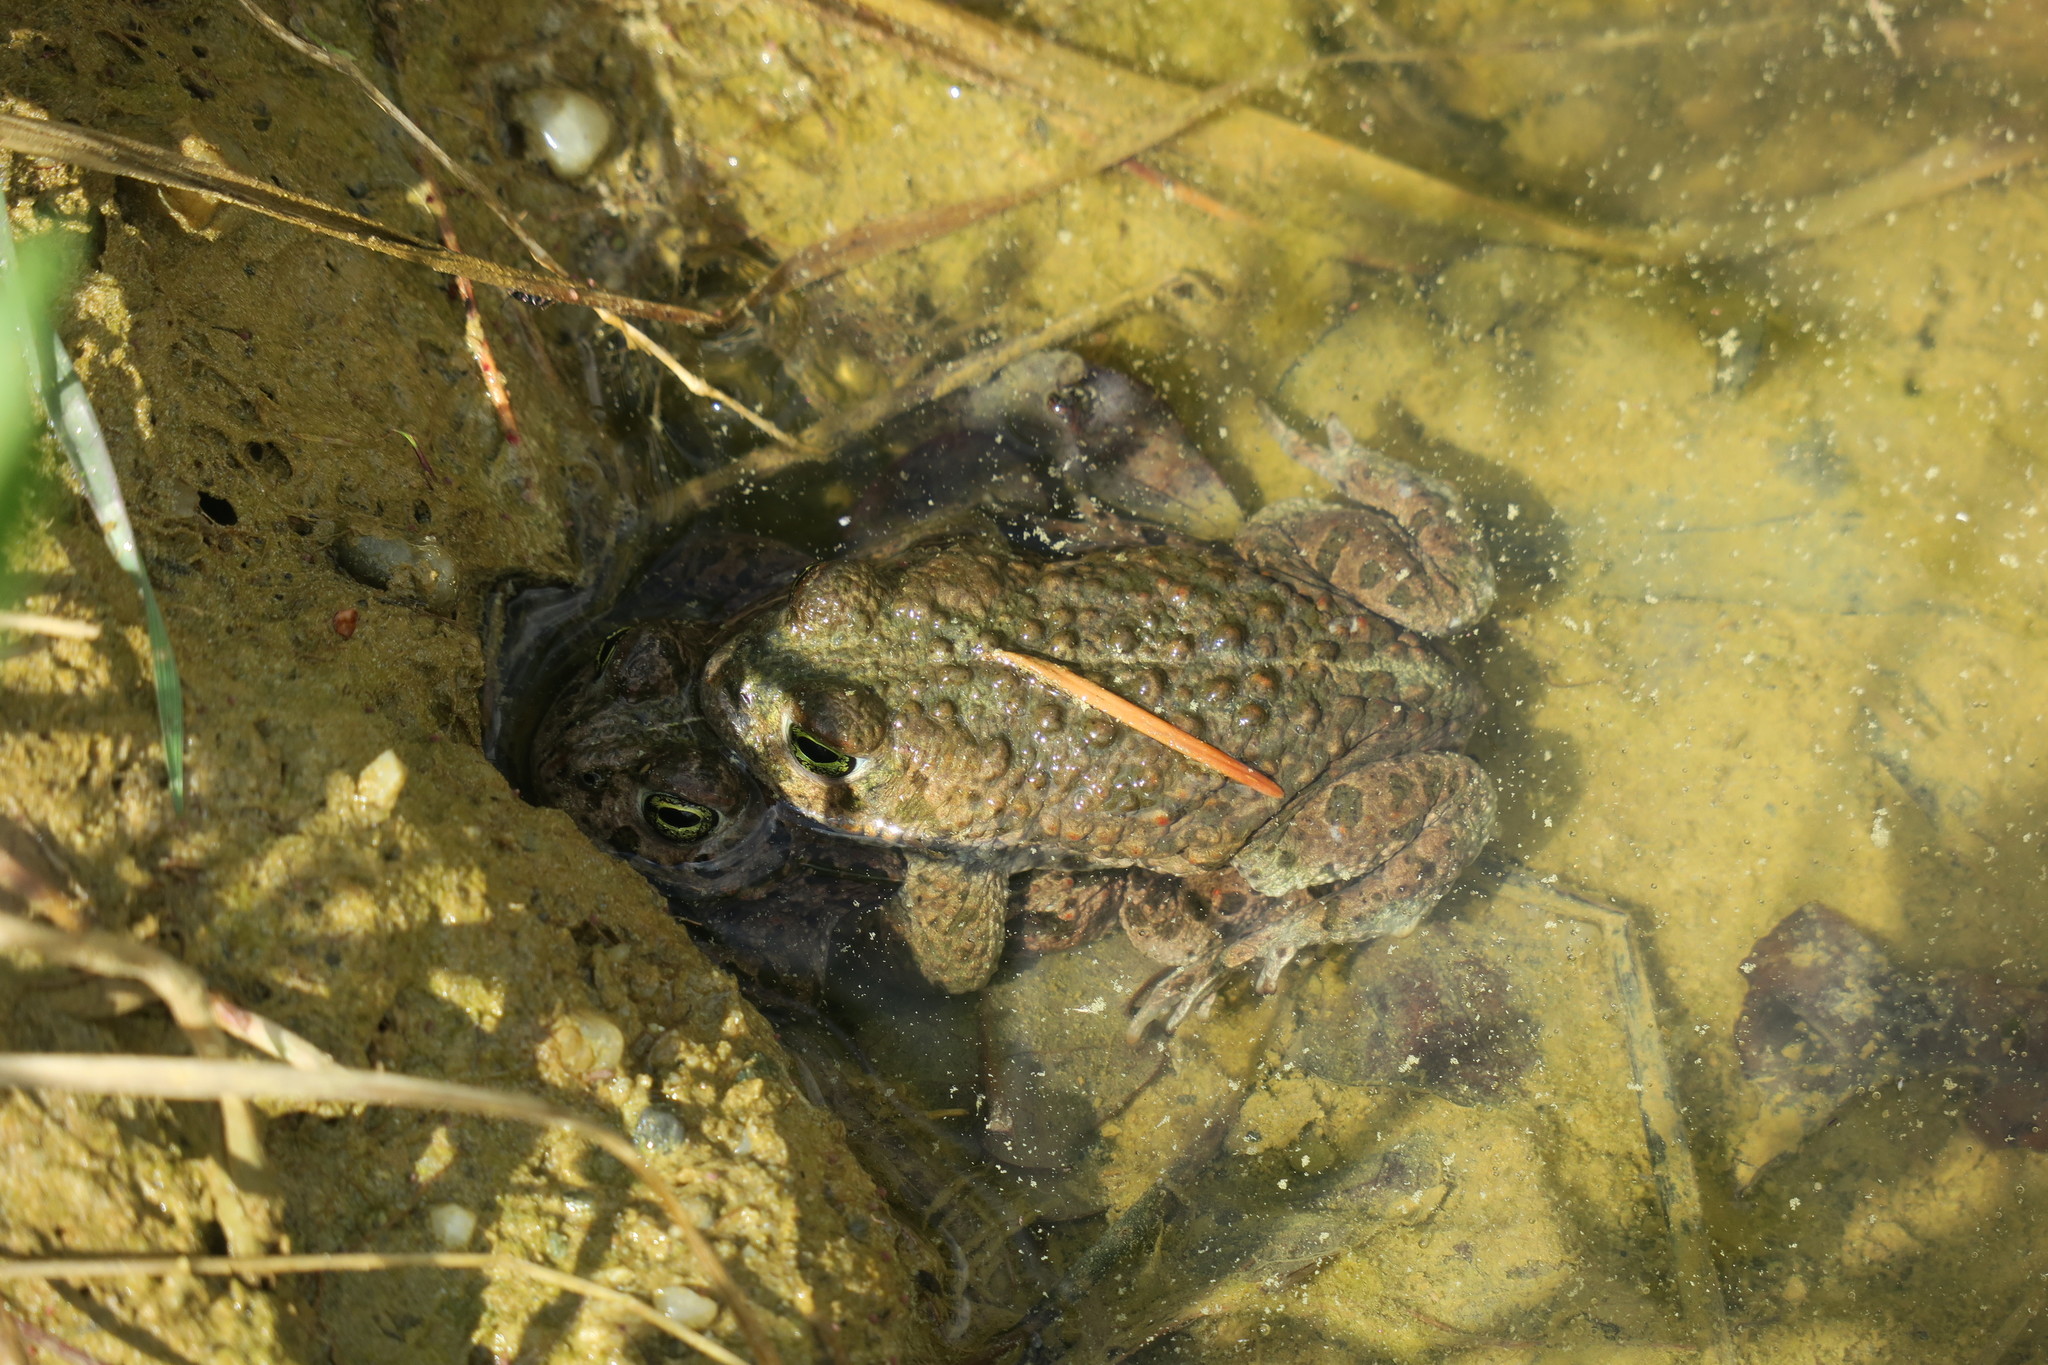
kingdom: Animalia
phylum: Chordata
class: Amphibia
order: Anura
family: Bufonidae
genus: Epidalea
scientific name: Epidalea calamita
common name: Natterjack toad
